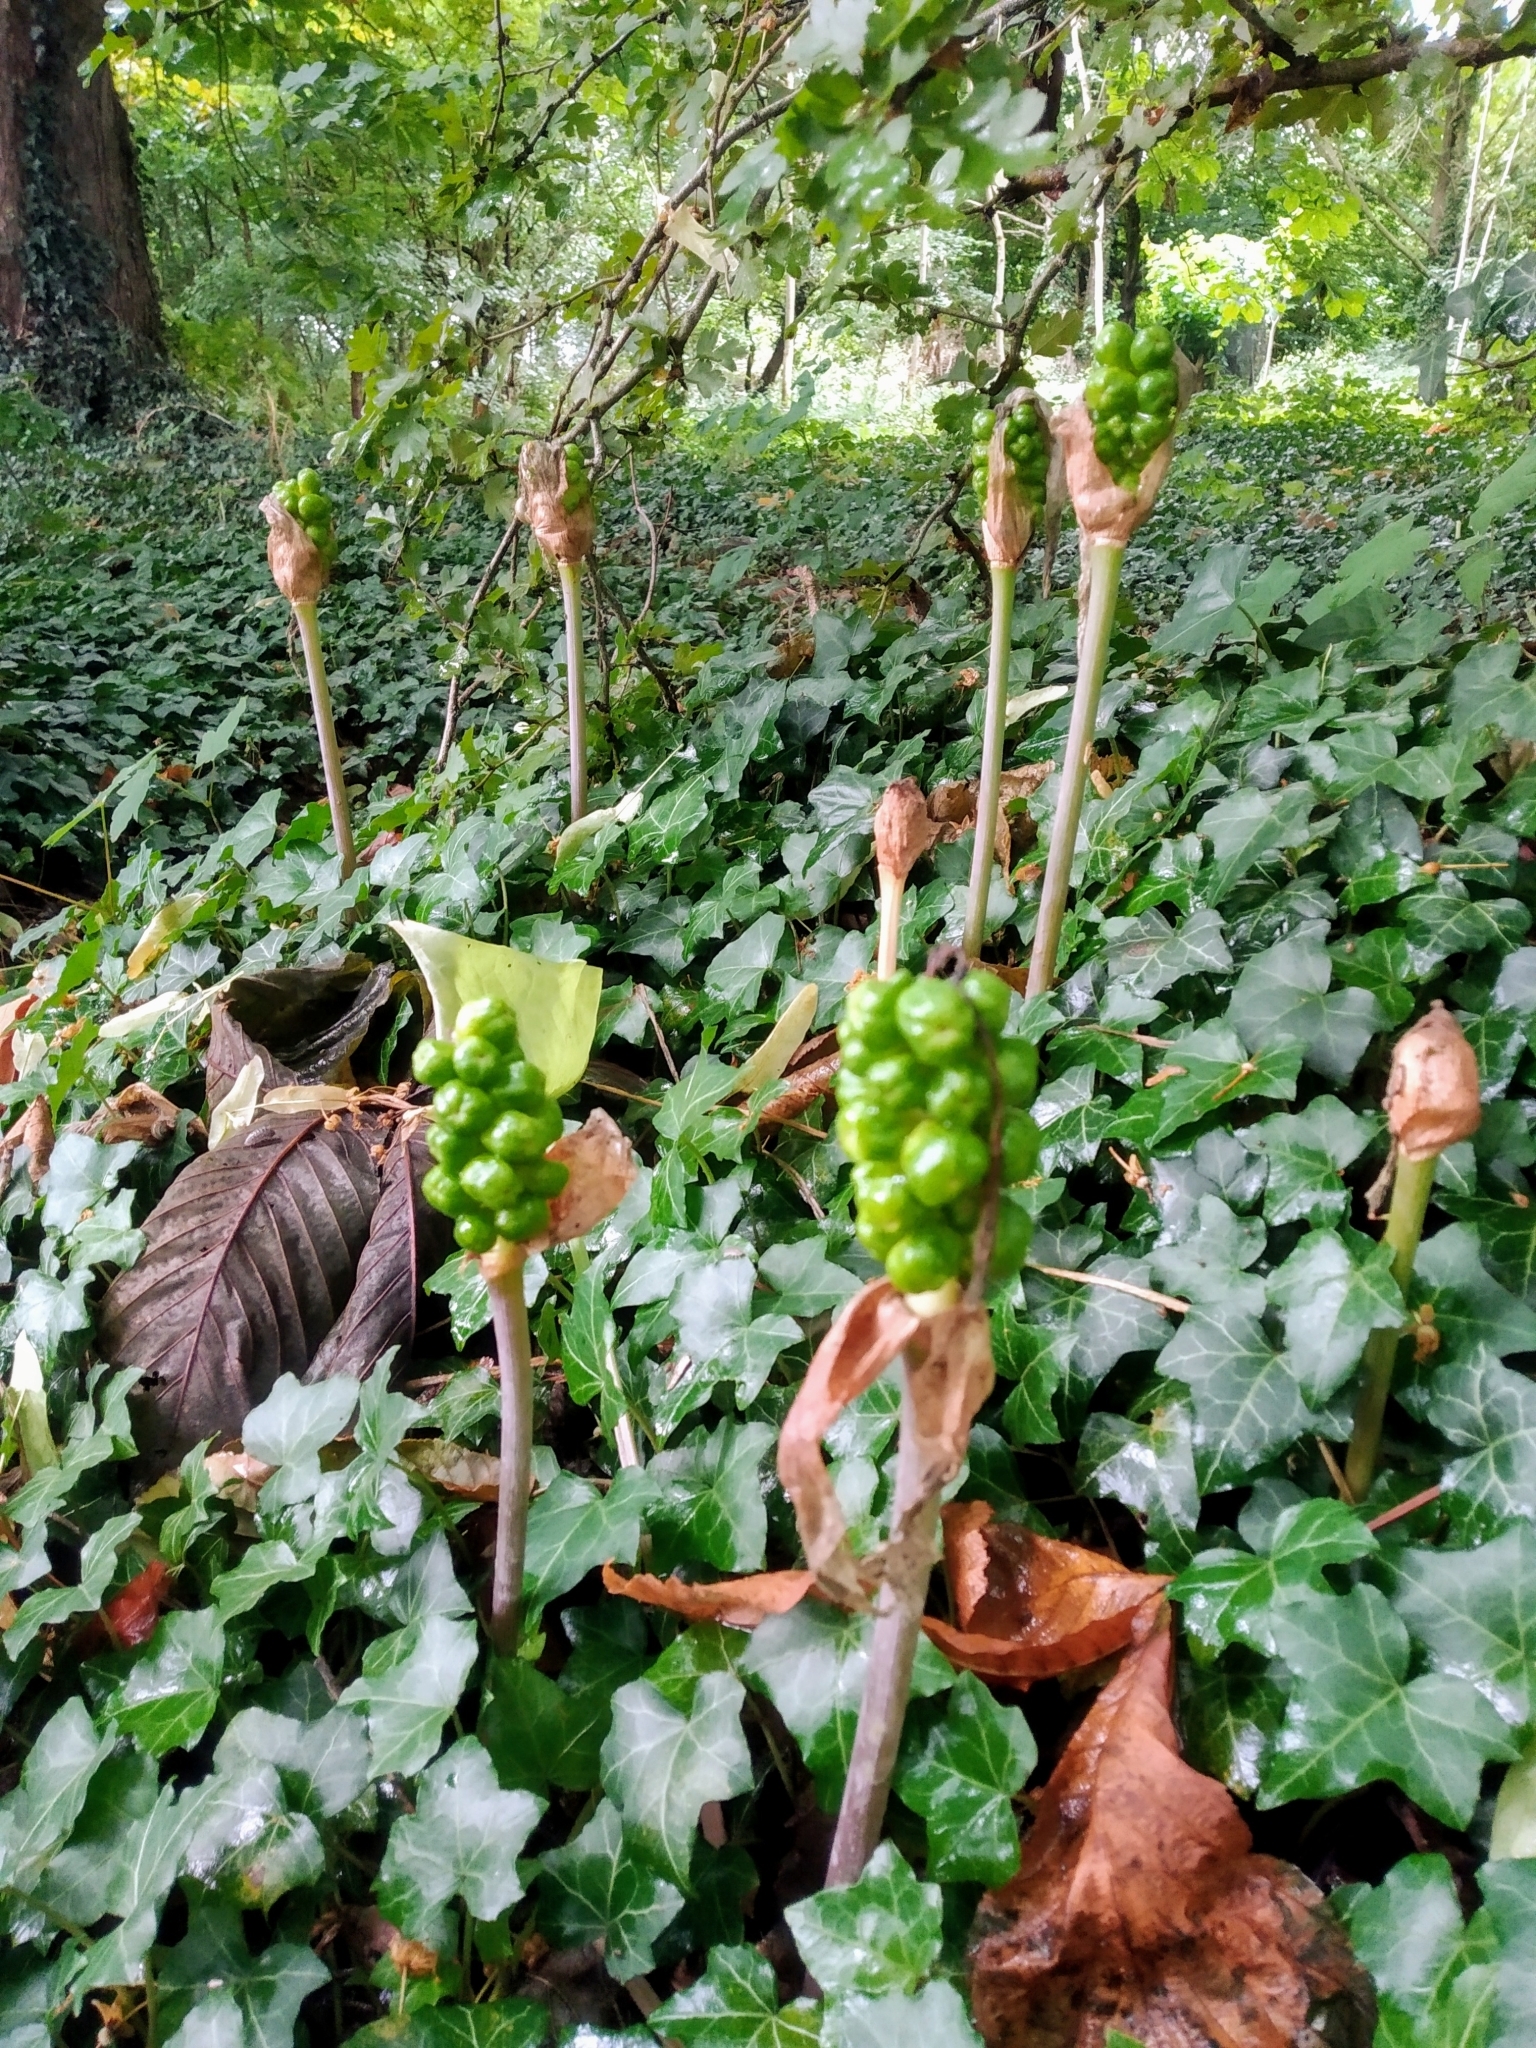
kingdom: Plantae
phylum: Tracheophyta
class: Liliopsida
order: Alismatales
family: Araceae
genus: Arum
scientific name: Arum maculatum
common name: Lords-and-ladies
